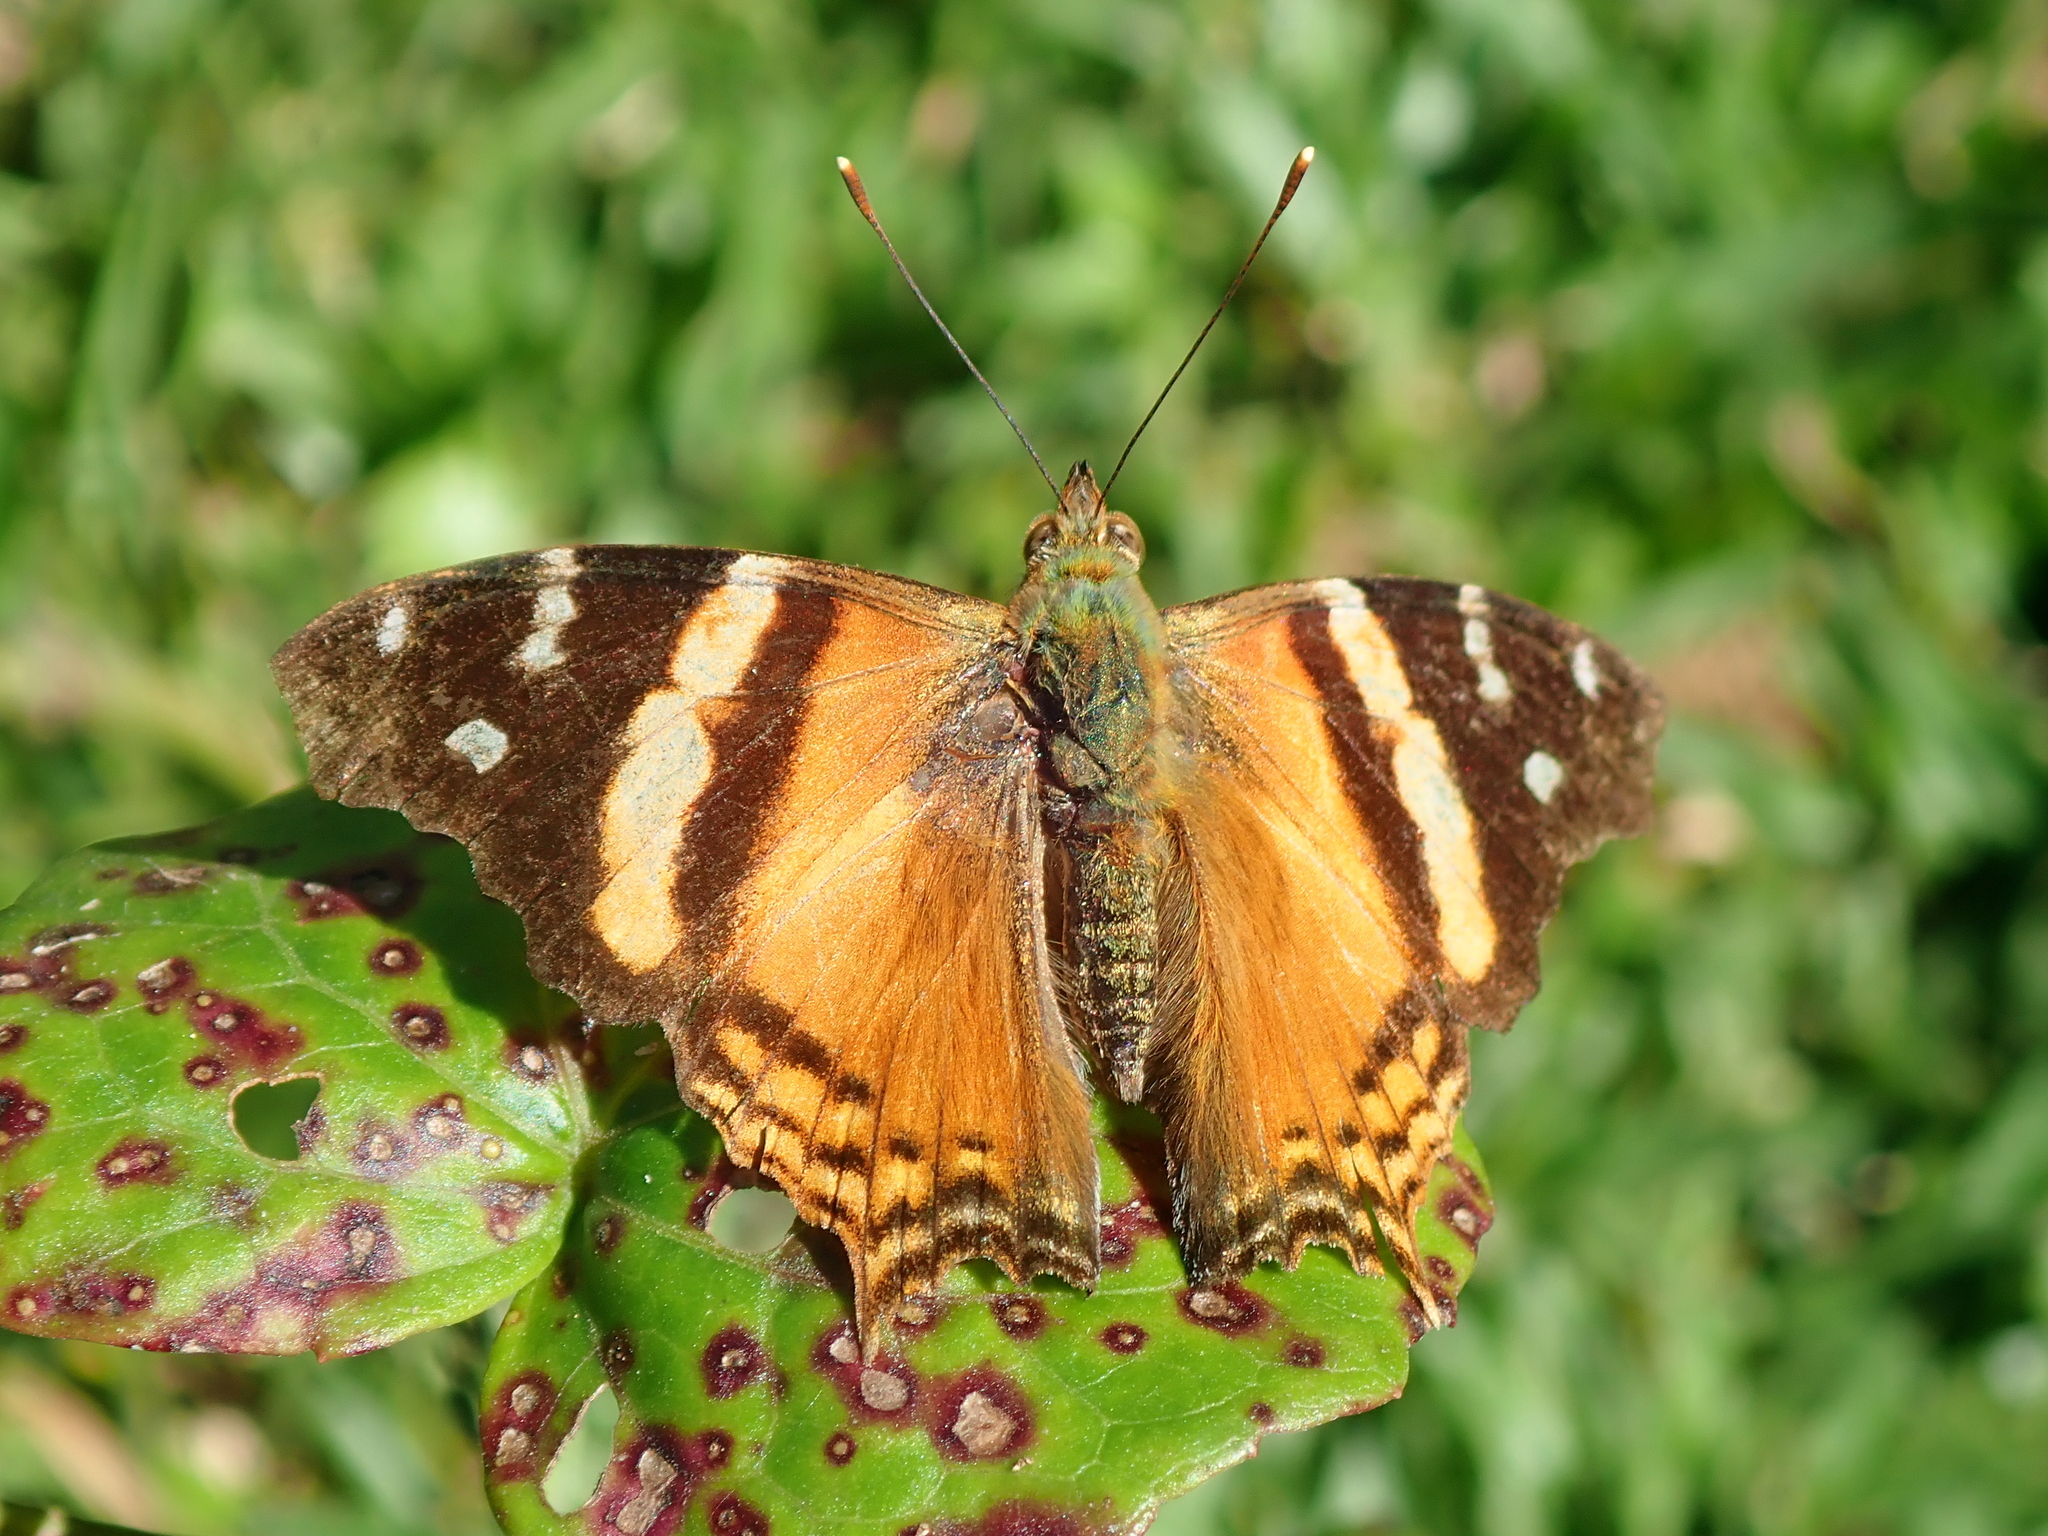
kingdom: Animalia
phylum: Arthropoda
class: Insecta
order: Lepidoptera
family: Nymphalidae
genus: Hypanartia
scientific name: Hypanartia bella
